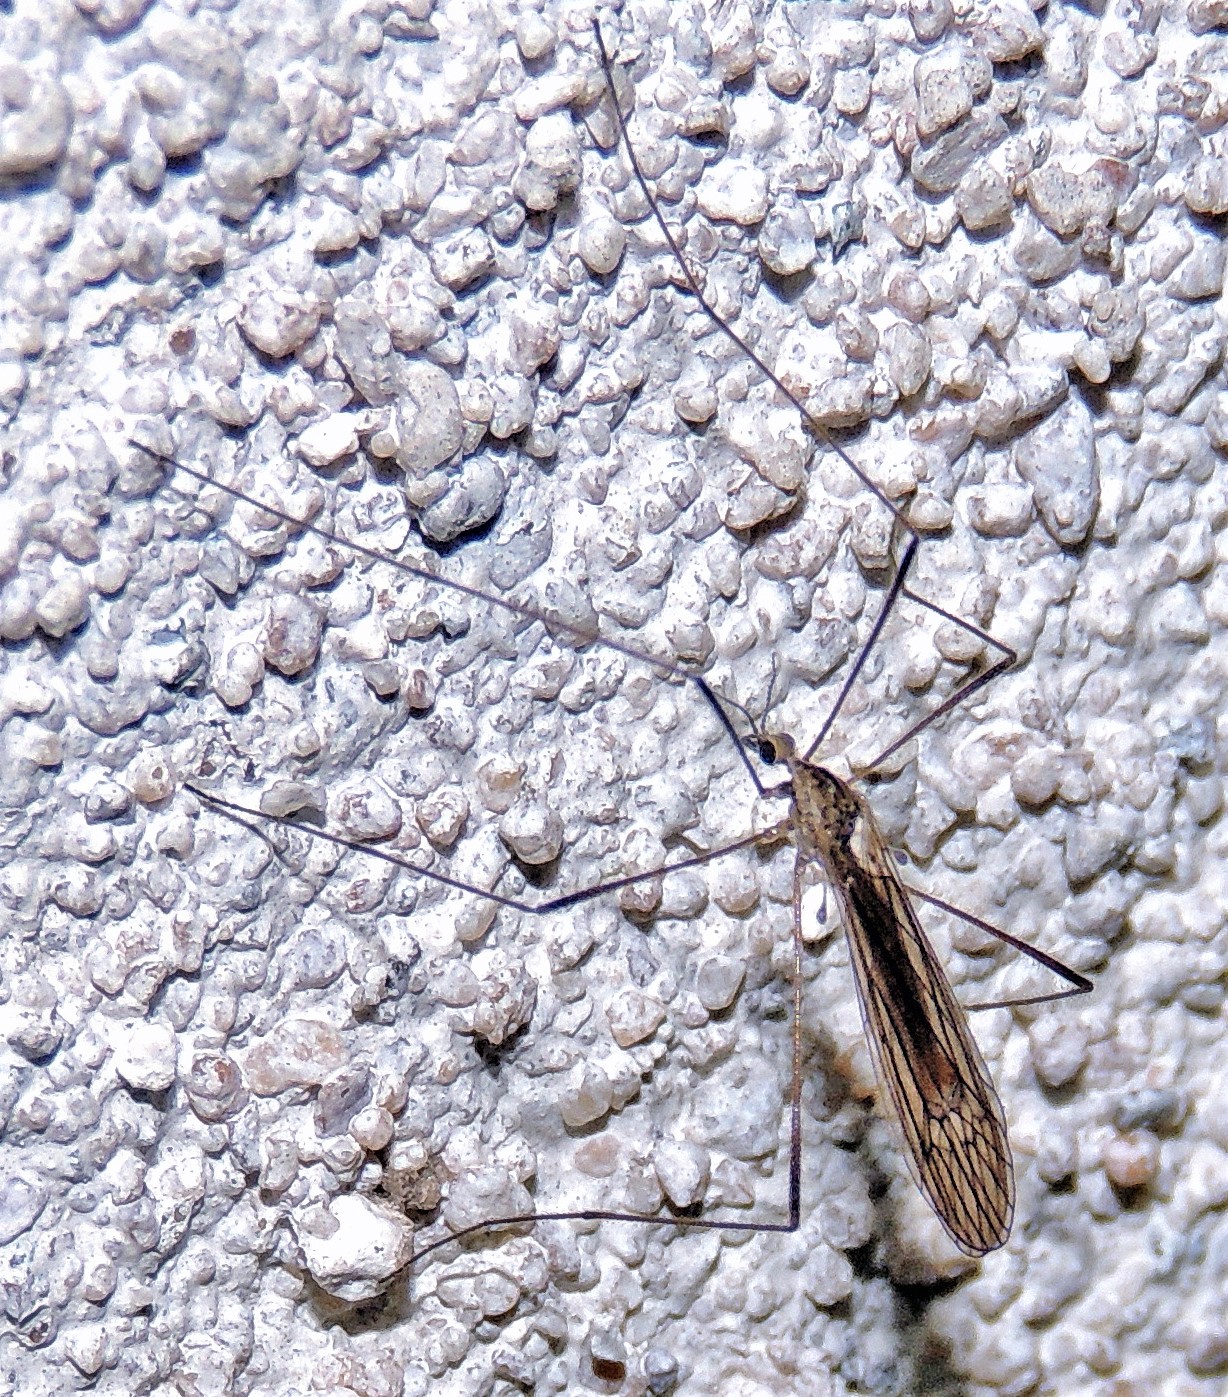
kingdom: Animalia
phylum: Arthropoda
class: Insecta
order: Diptera
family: Limoniidae
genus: Symplecta
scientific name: Symplecta pilipes
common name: Crane fly
